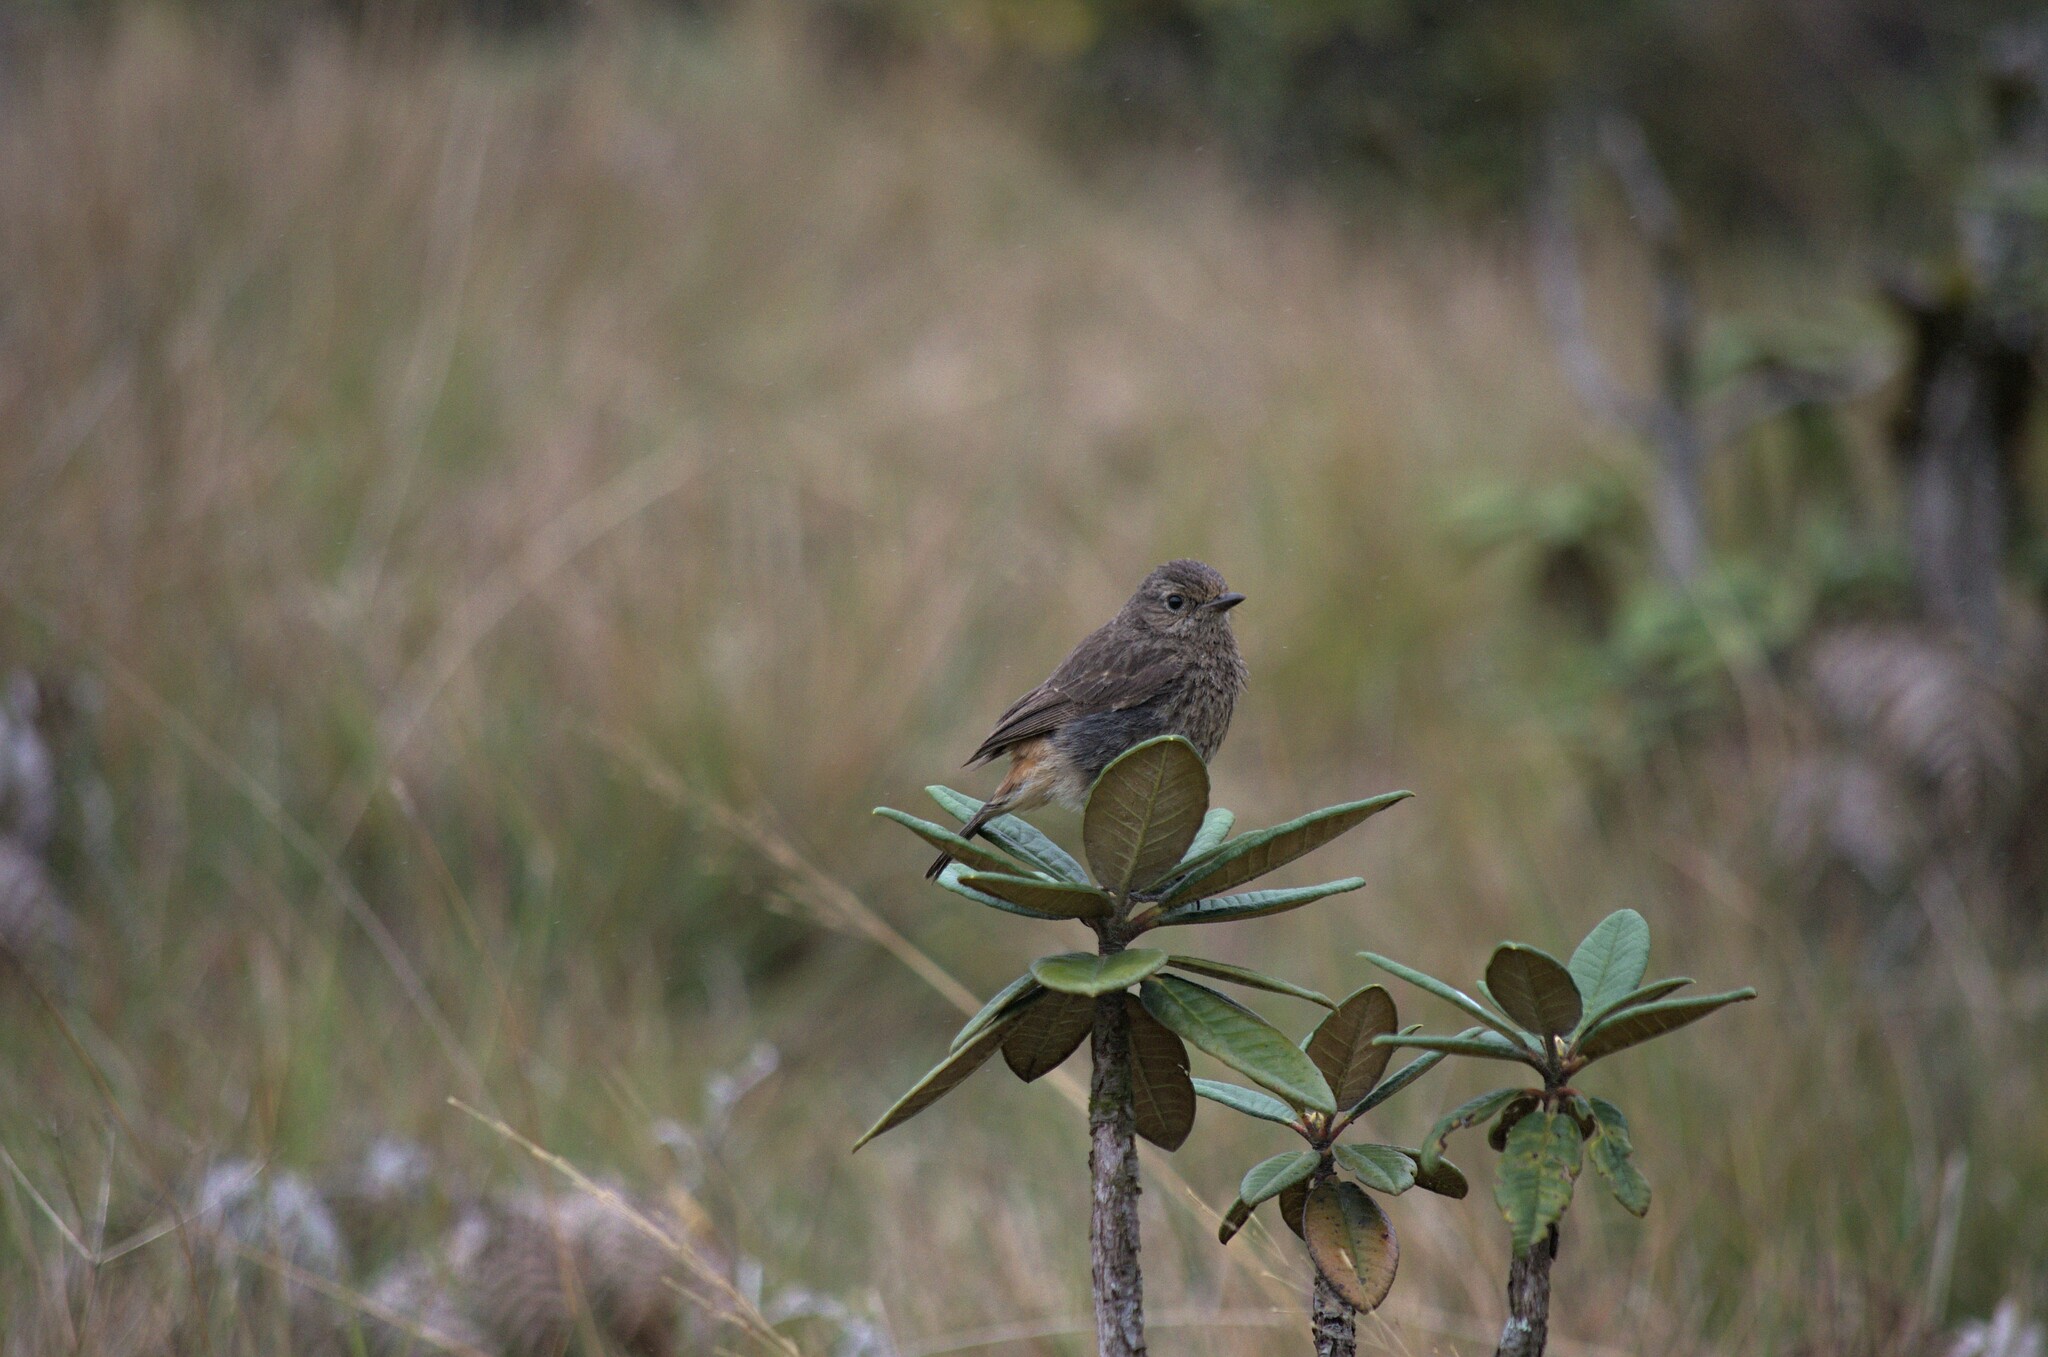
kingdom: Animalia
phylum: Chordata
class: Aves
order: Passeriformes
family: Muscicapidae
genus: Saxicola
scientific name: Saxicola caprata
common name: Pied bush chat
